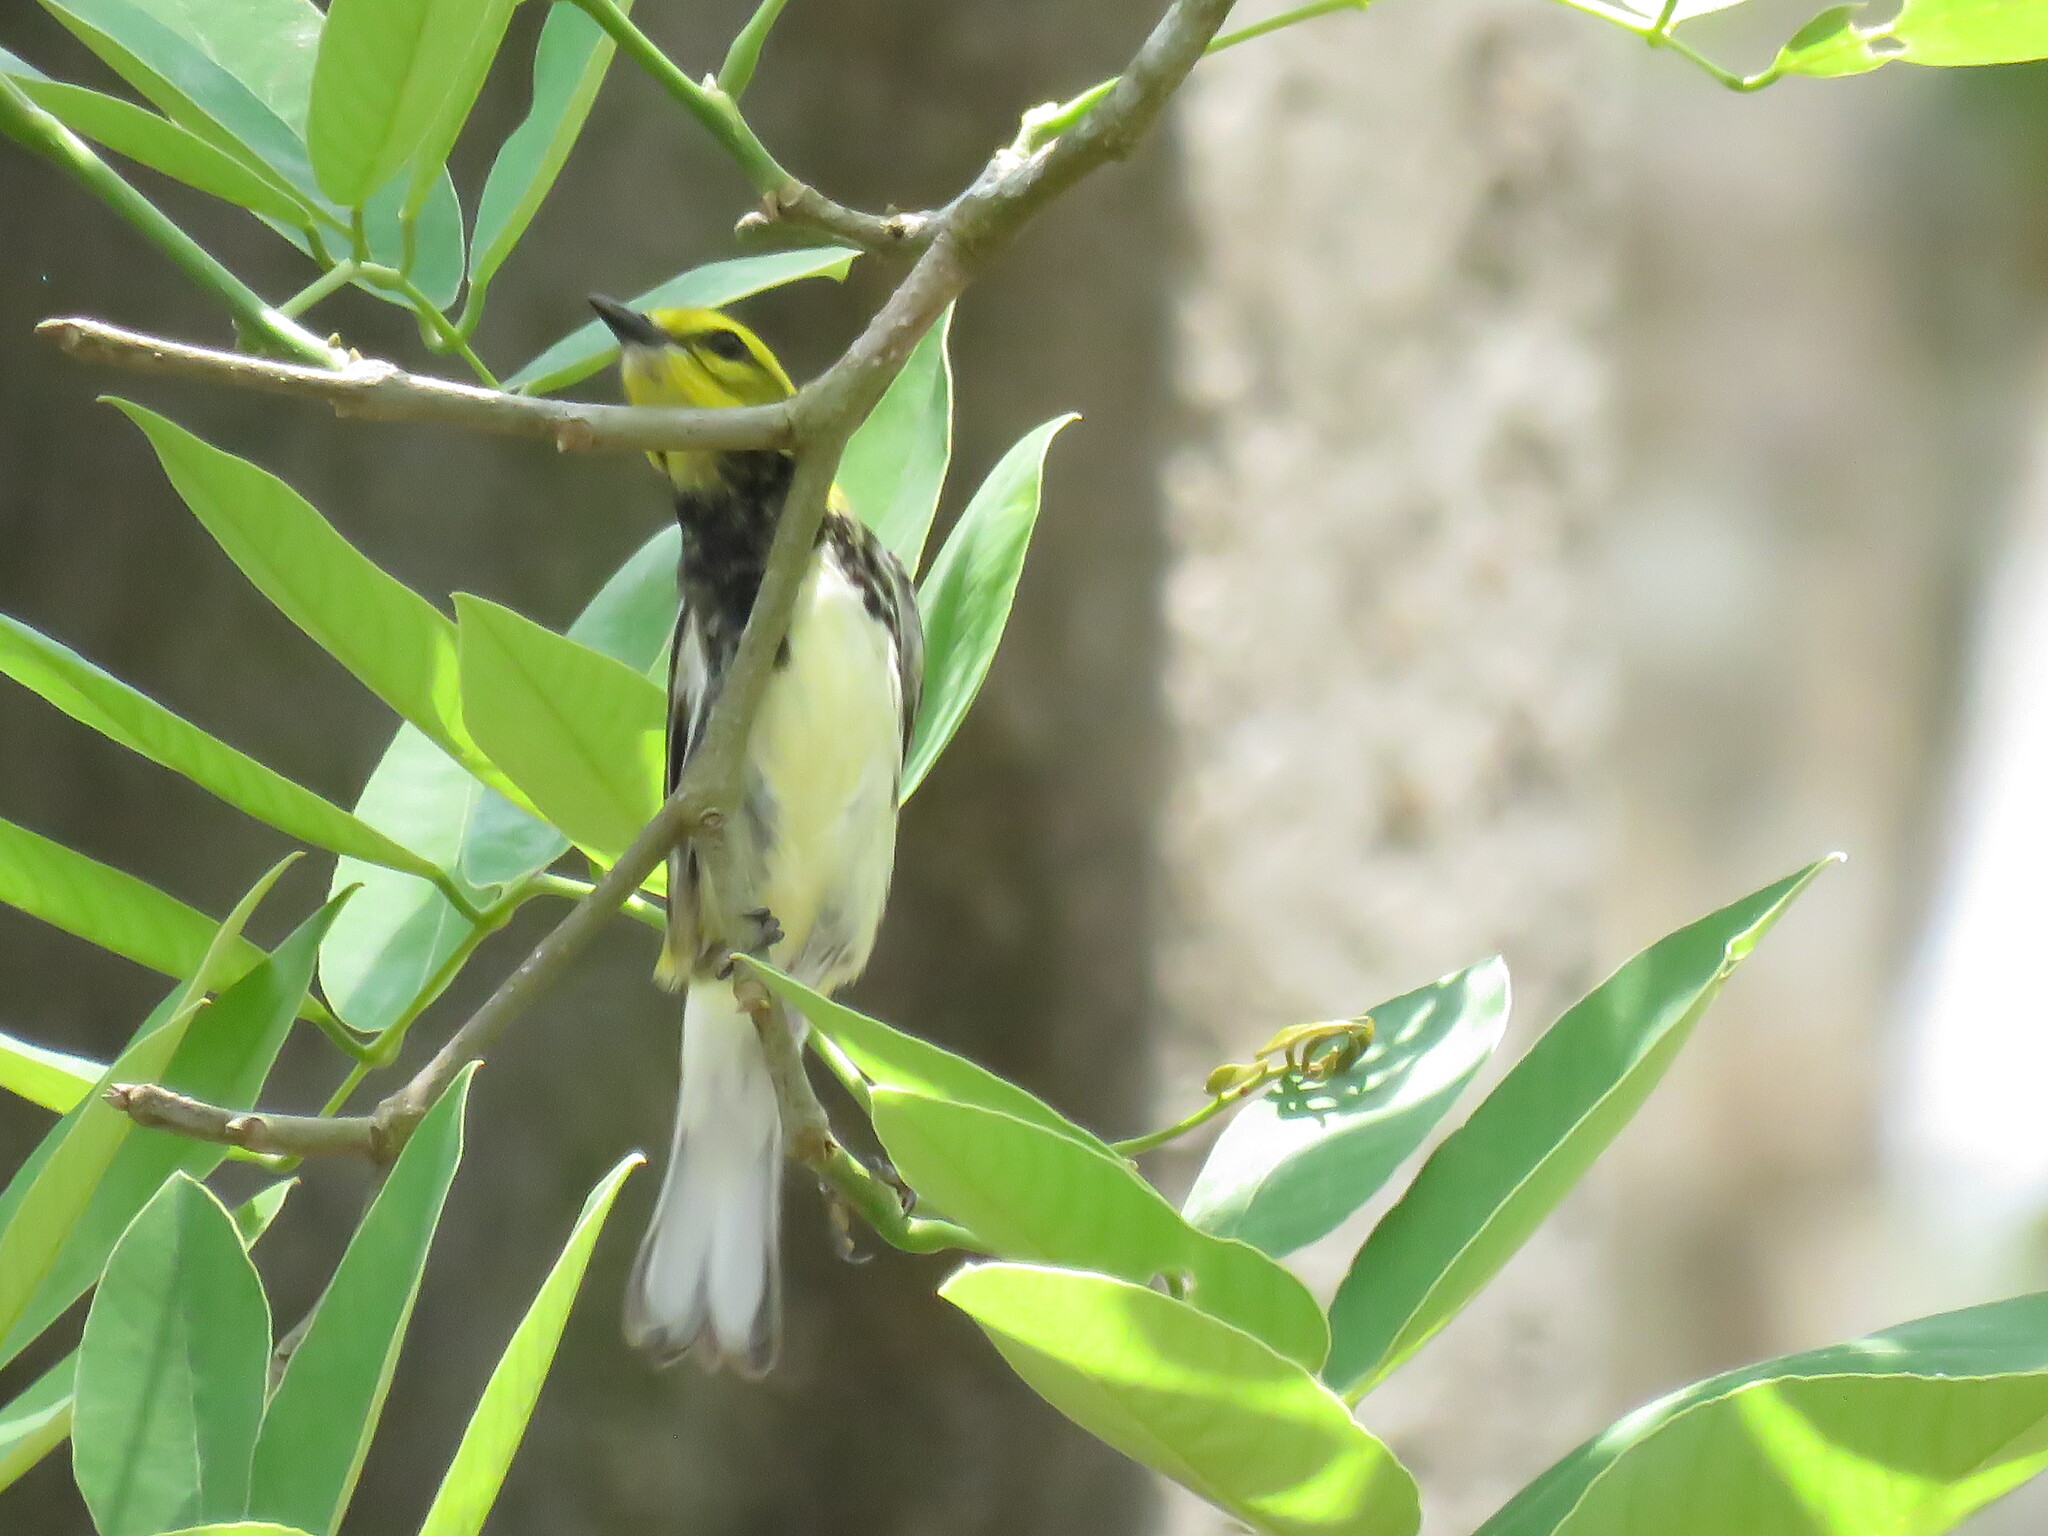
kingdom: Animalia
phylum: Chordata
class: Aves
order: Passeriformes
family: Parulidae
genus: Setophaga
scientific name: Setophaga virens
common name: Black-throated green warbler
